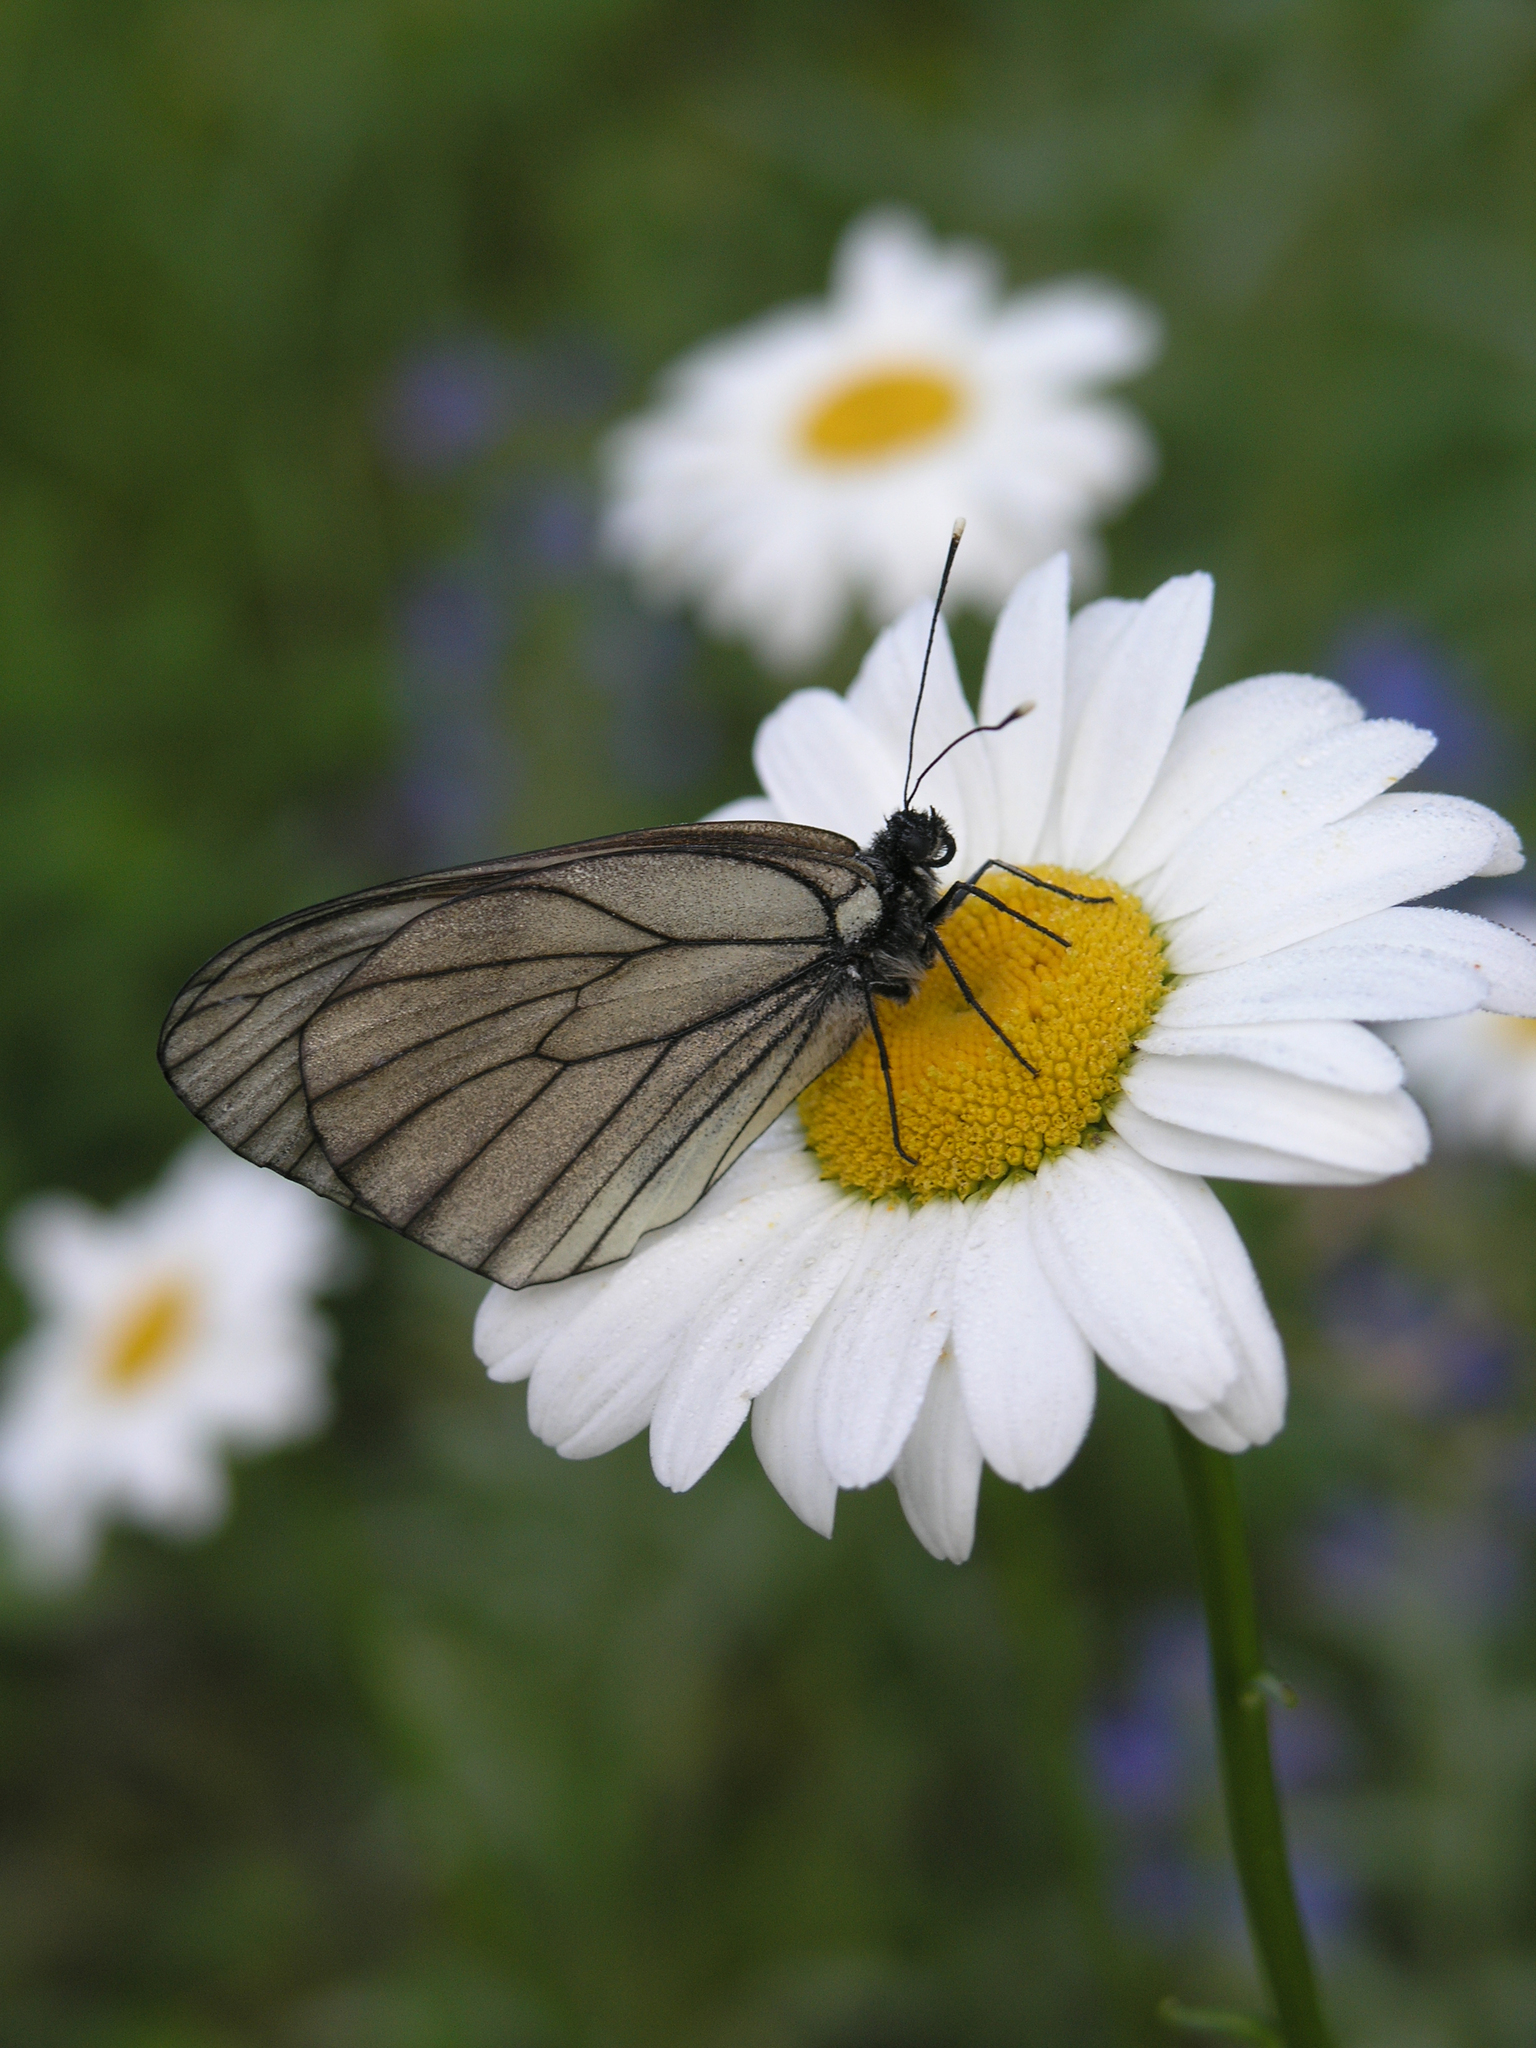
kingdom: Animalia
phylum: Arthropoda
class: Insecta
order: Lepidoptera
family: Pieridae
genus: Aporia
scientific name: Aporia crataegi
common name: Black-veined white
